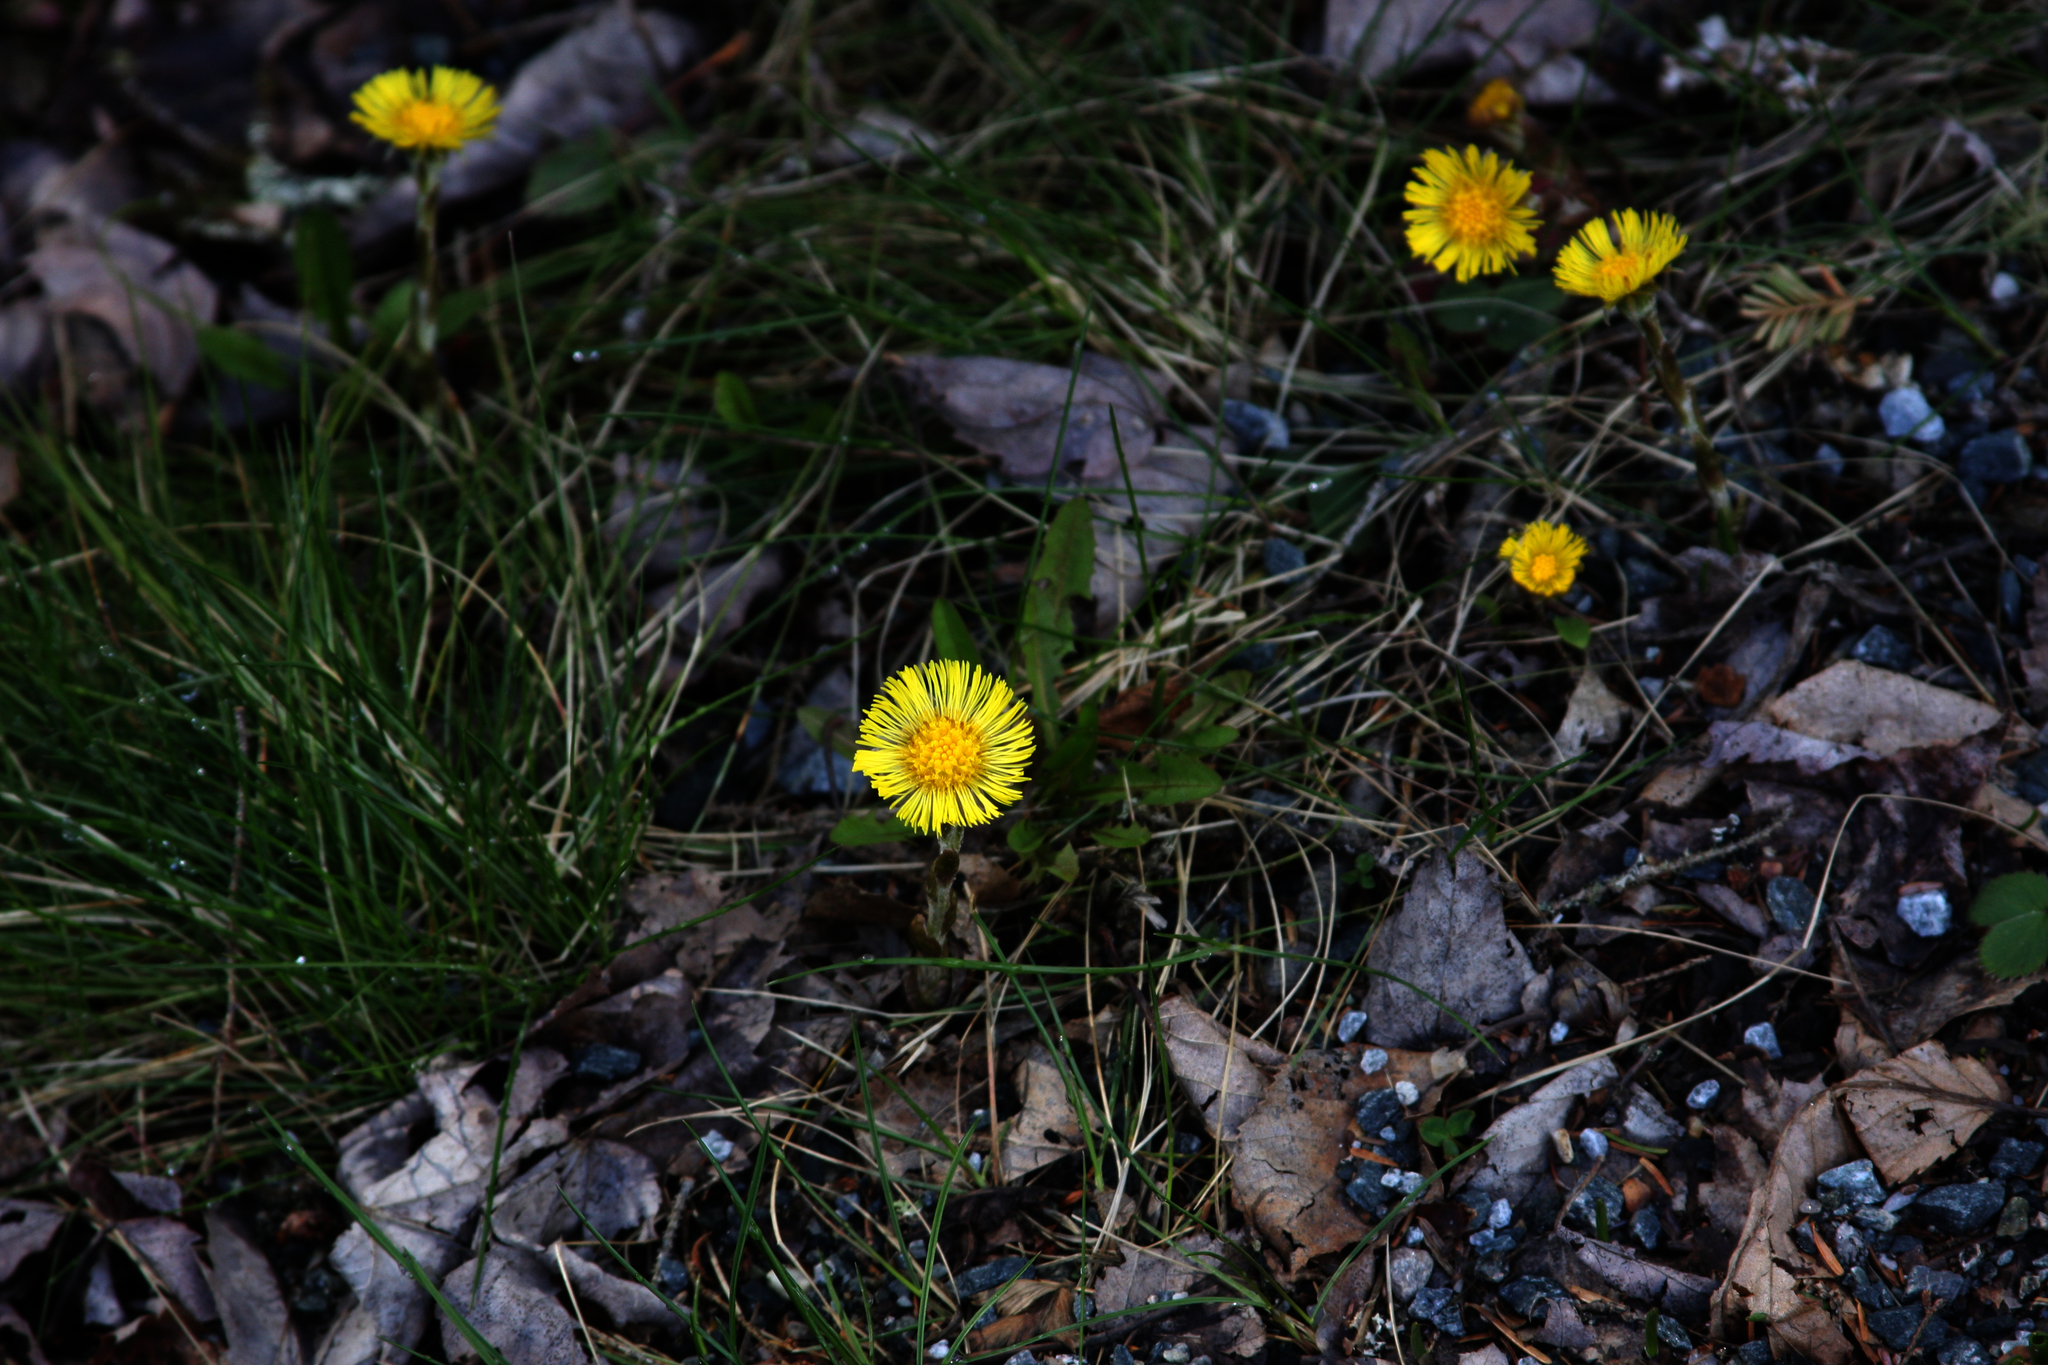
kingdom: Plantae
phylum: Tracheophyta
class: Magnoliopsida
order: Asterales
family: Asteraceae
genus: Tussilago
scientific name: Tussilago farfara
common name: Coltsfoot
